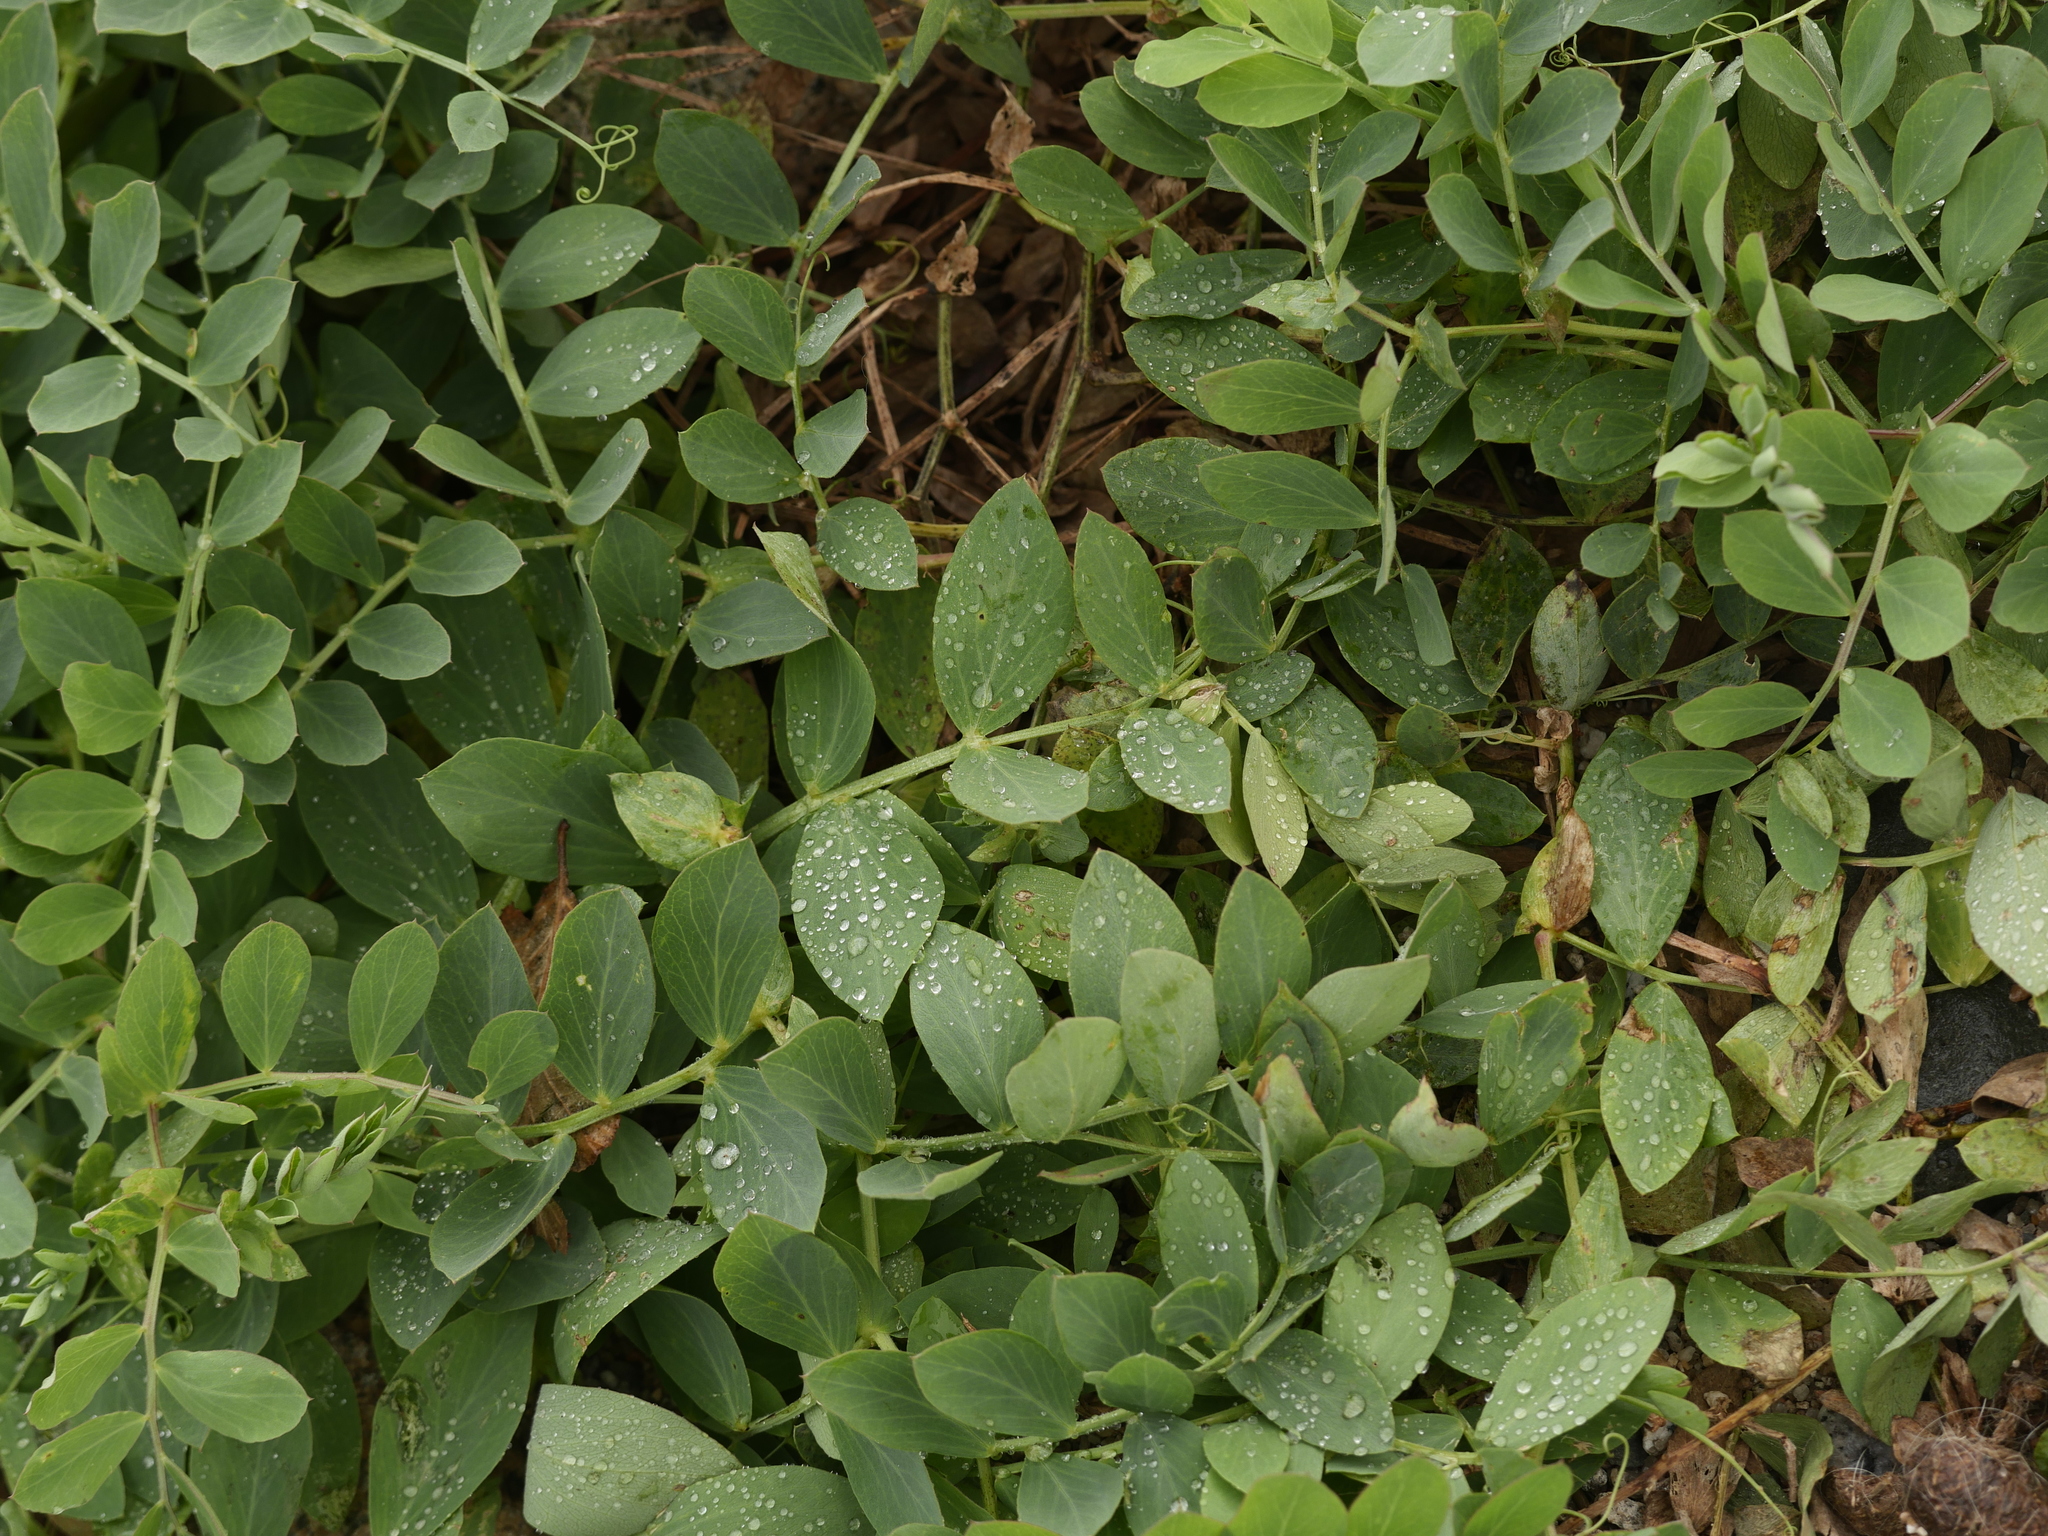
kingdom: Plantae
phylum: Tracheophyta
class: Magnoliopsida
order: Fabales
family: Fabaceae
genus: Lathyrus
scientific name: Lathyrus japonicus
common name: Sea pea
